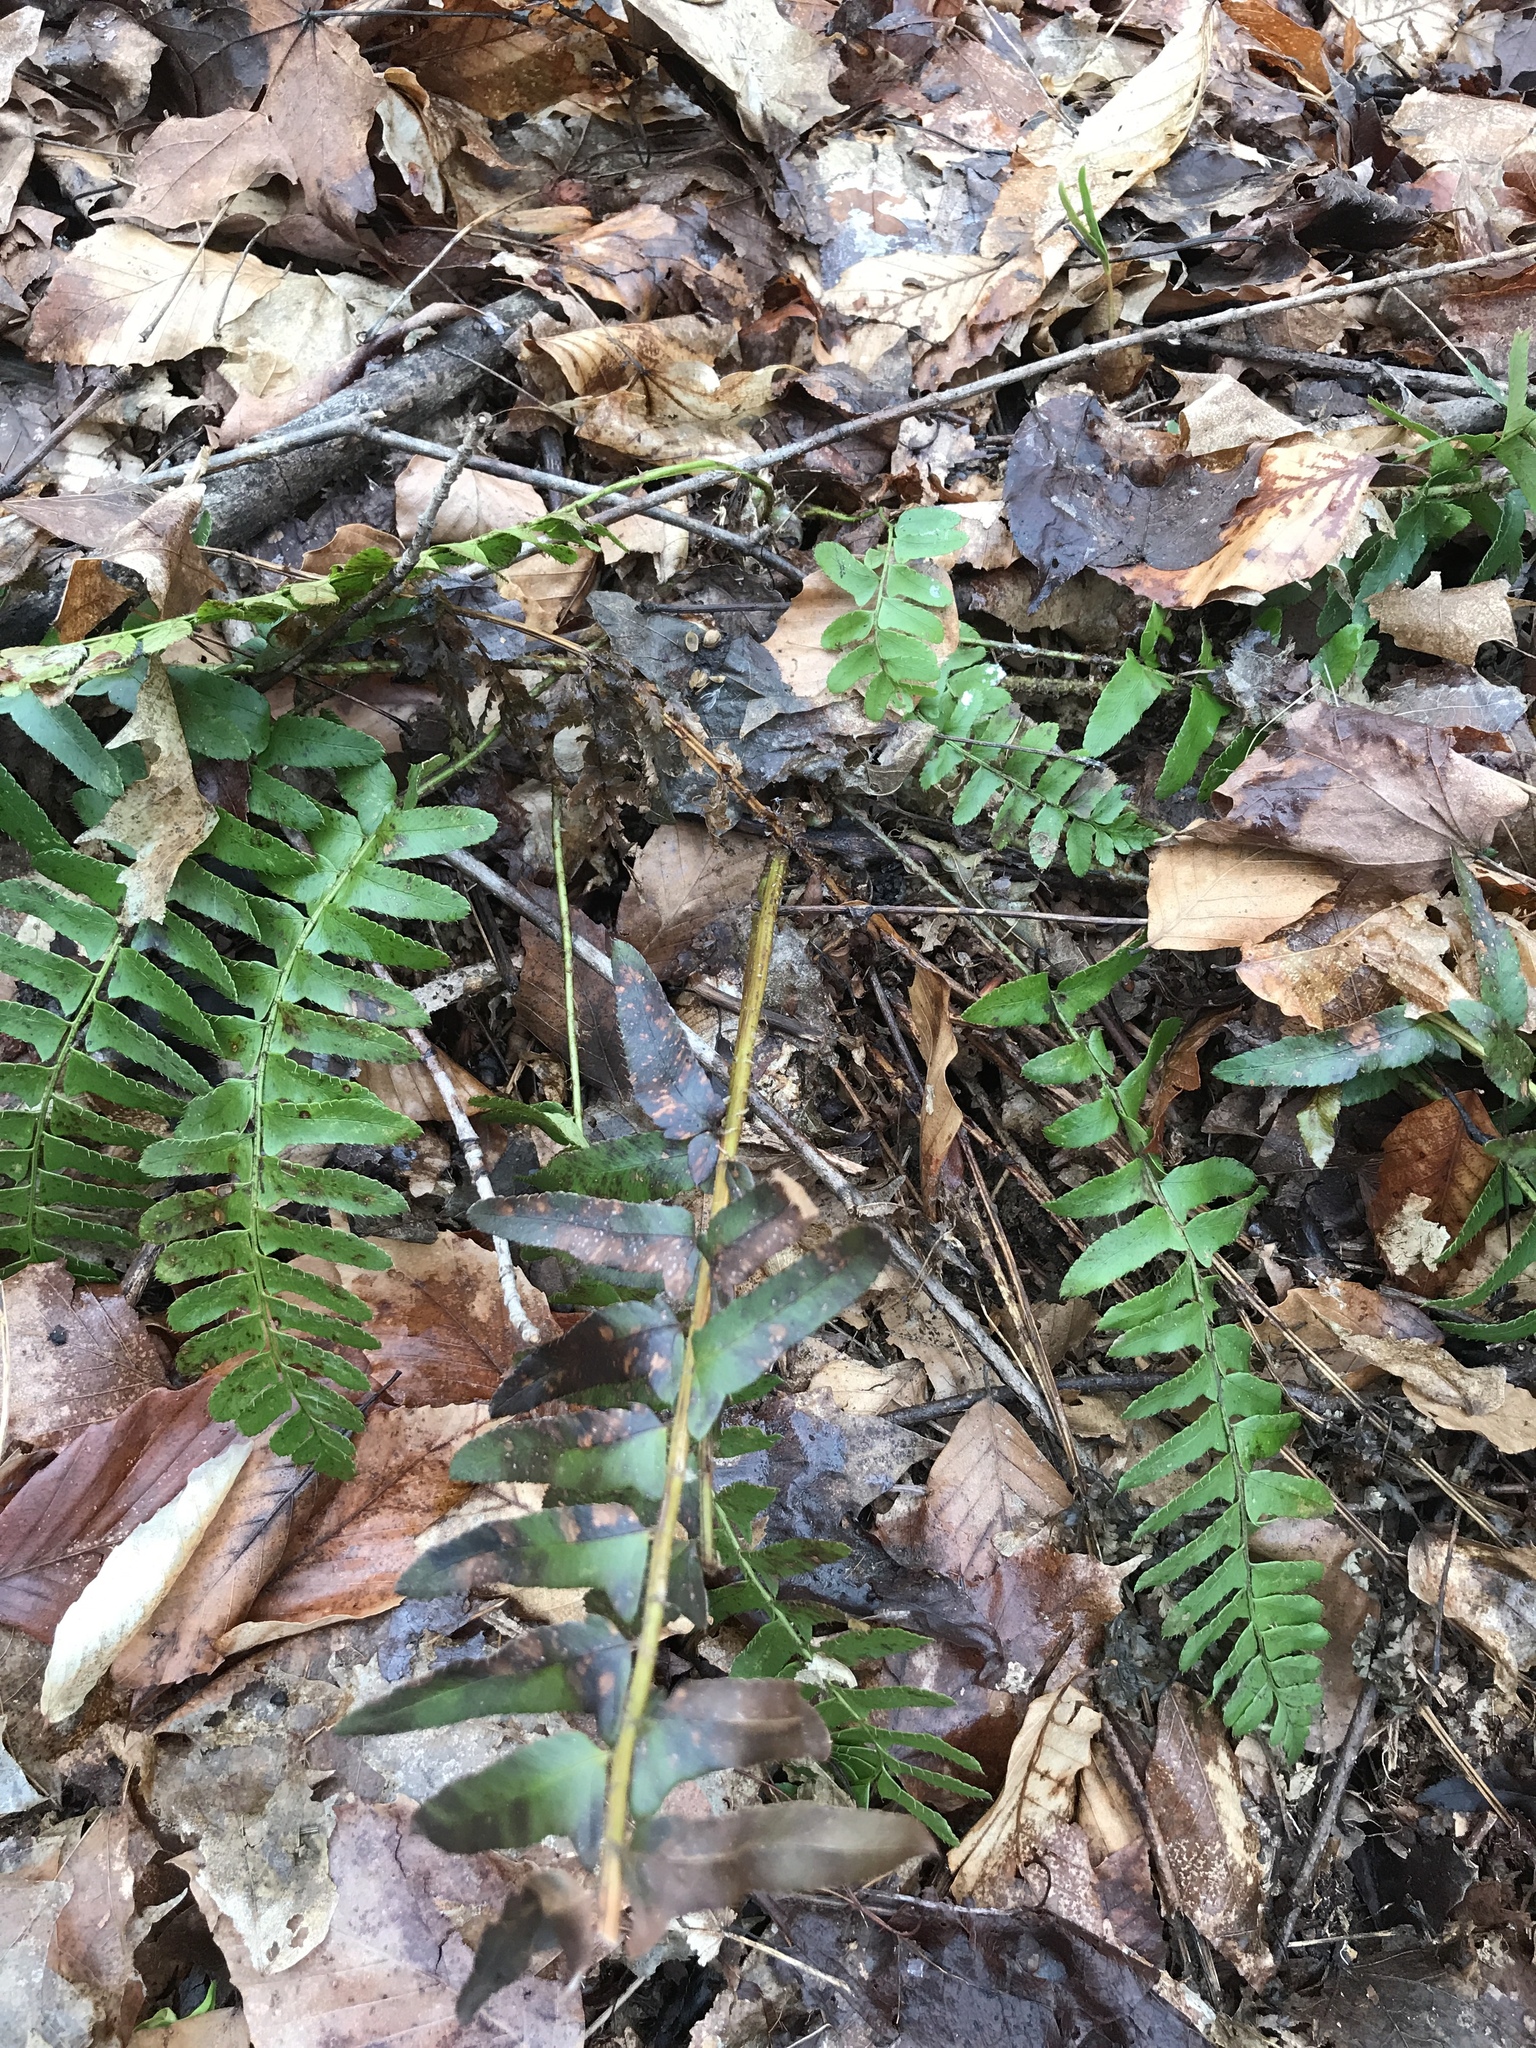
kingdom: Plantae
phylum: Tracheophyta
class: Polypodiopsida
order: Polypodiales
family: Dryopteridaceae
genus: Polystichum
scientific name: Polystichum acrostichoides
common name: Christmas fern
